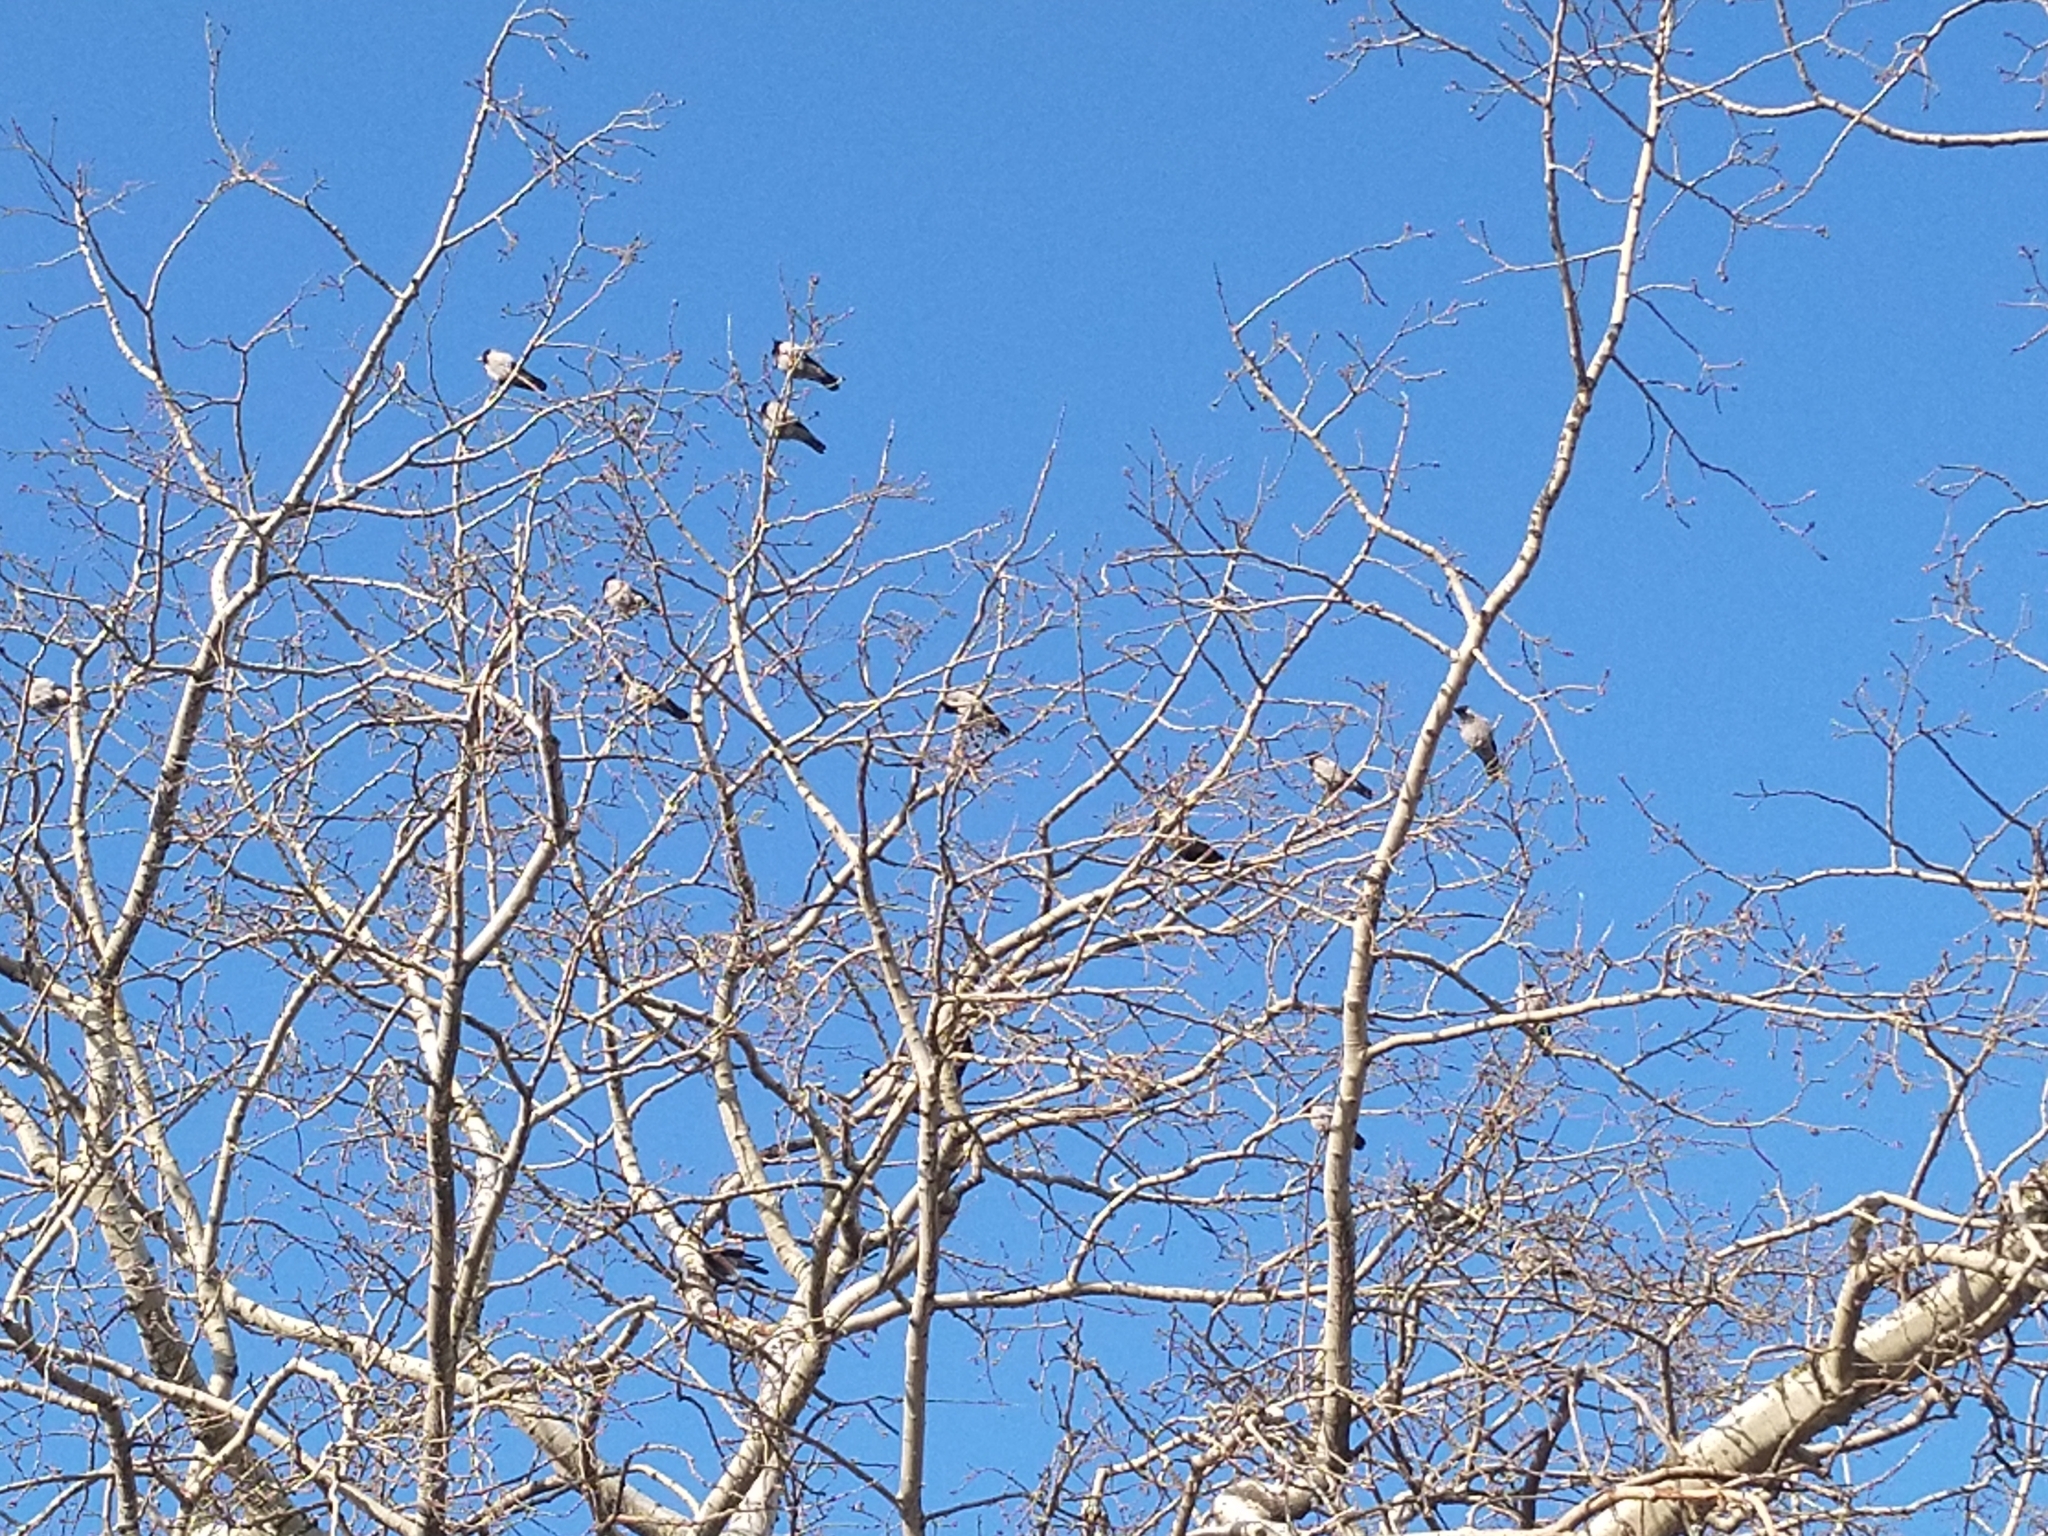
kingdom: Animalia
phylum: Chordata
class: Aves
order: Passeriformes
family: Corvidae
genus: Corvus
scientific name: Corvus cornix
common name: Hooded crow
